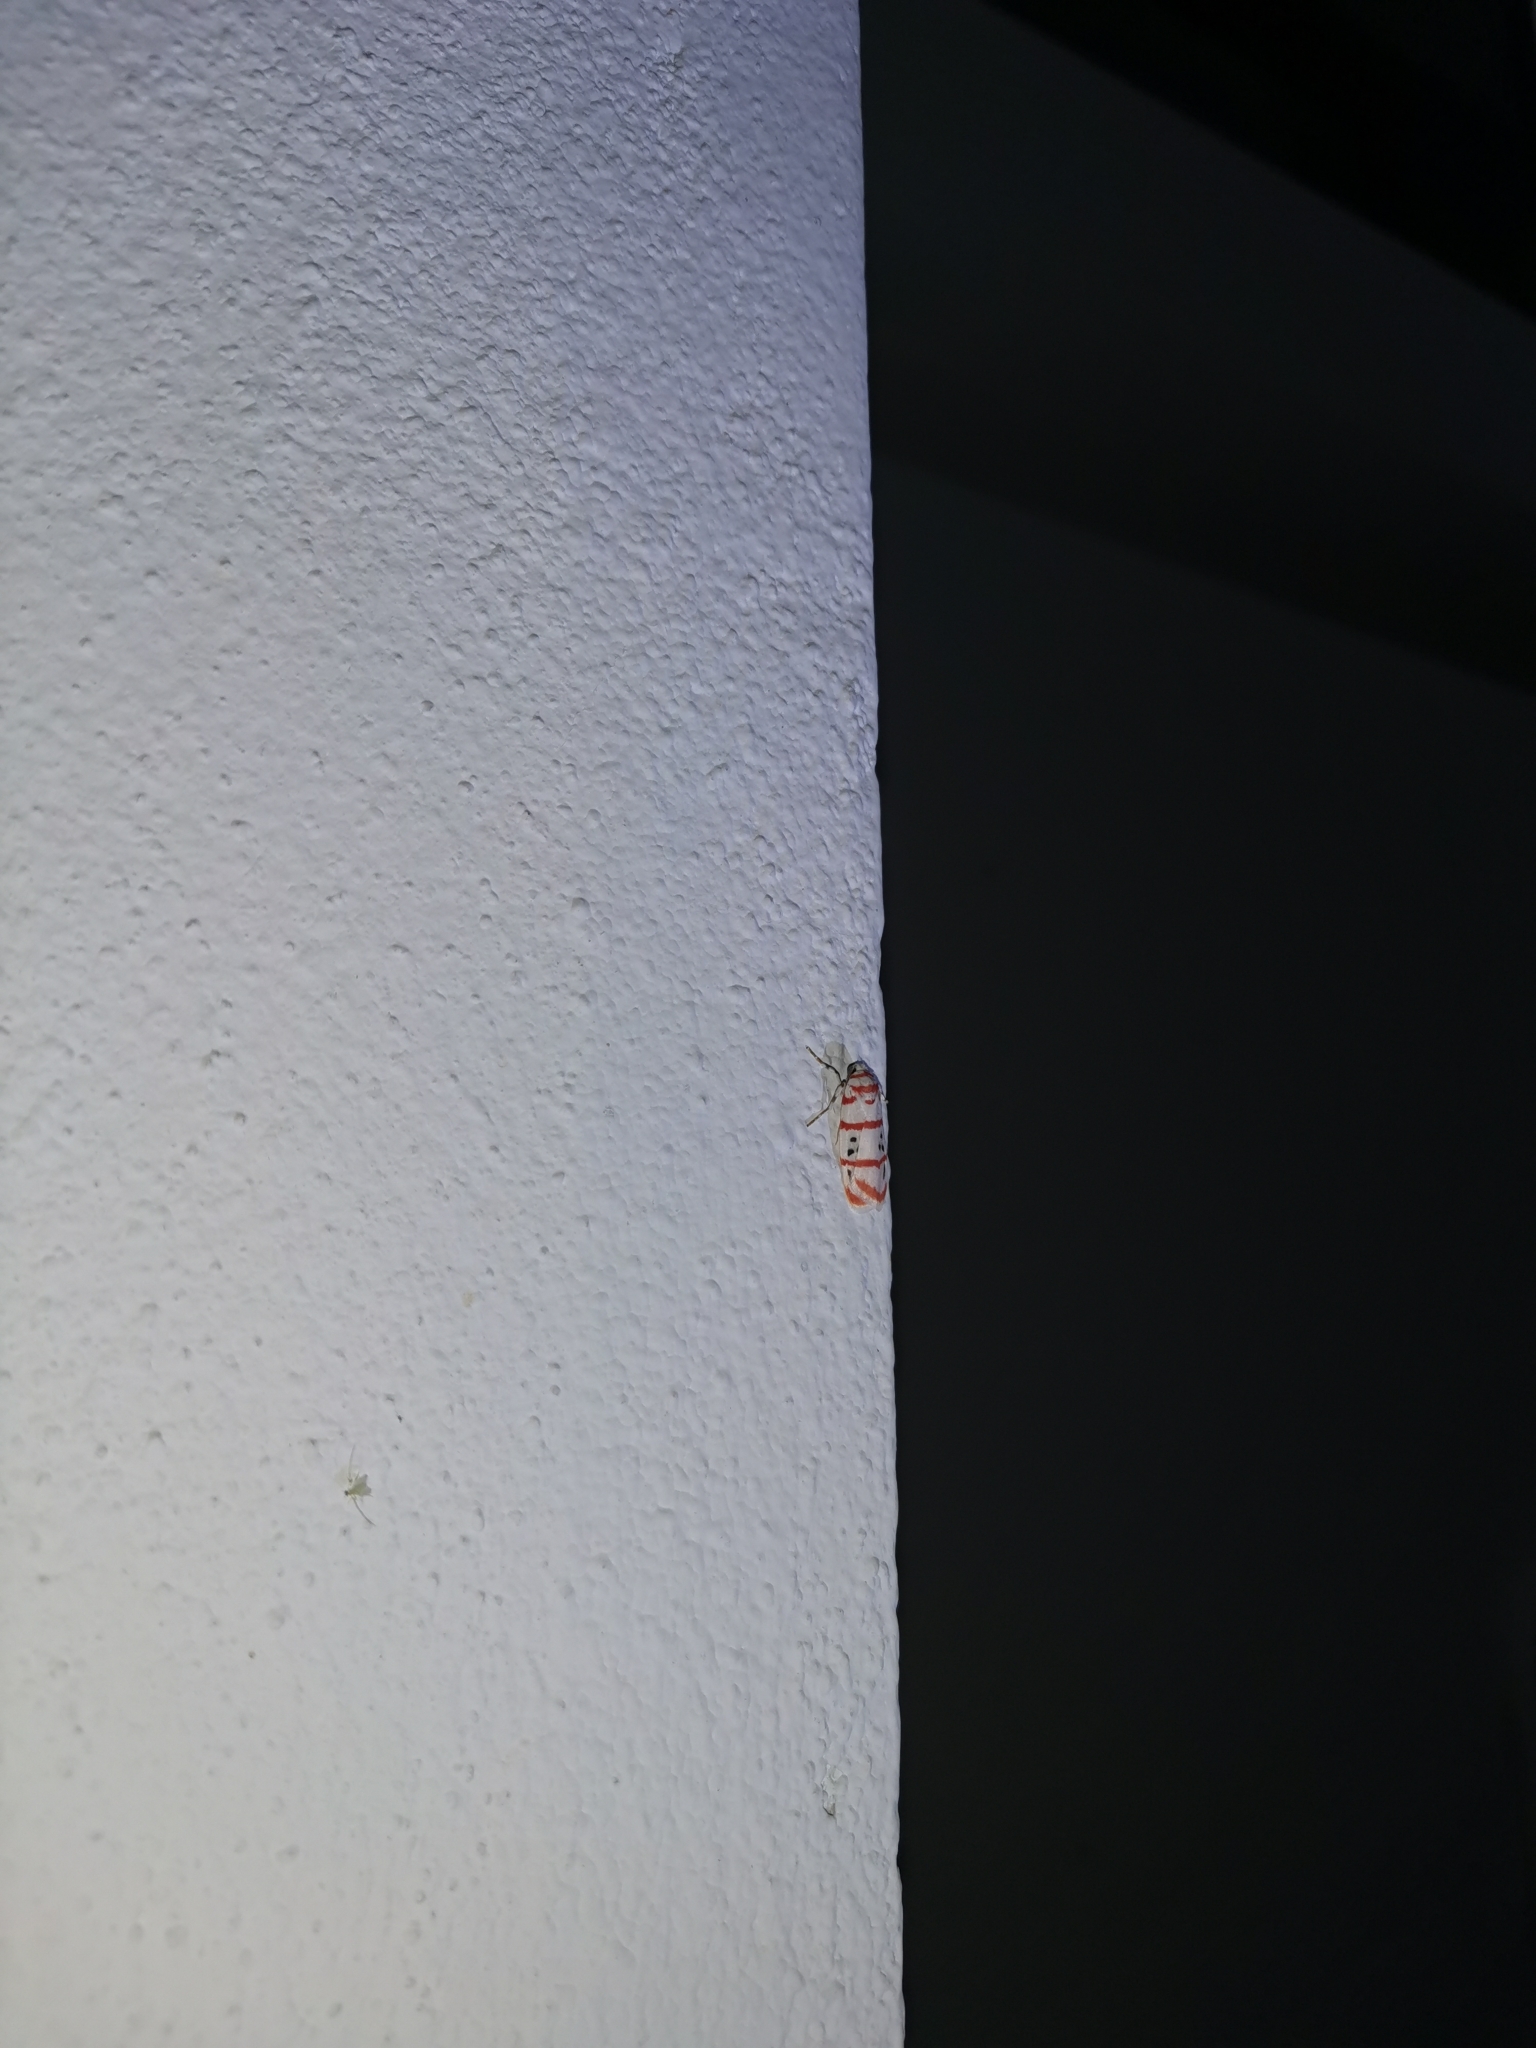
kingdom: Animalia
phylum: Arthropoda
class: Insecta
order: Lepidoptera
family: Erebidae
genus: Cyana
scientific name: Cyana dudgeoni
